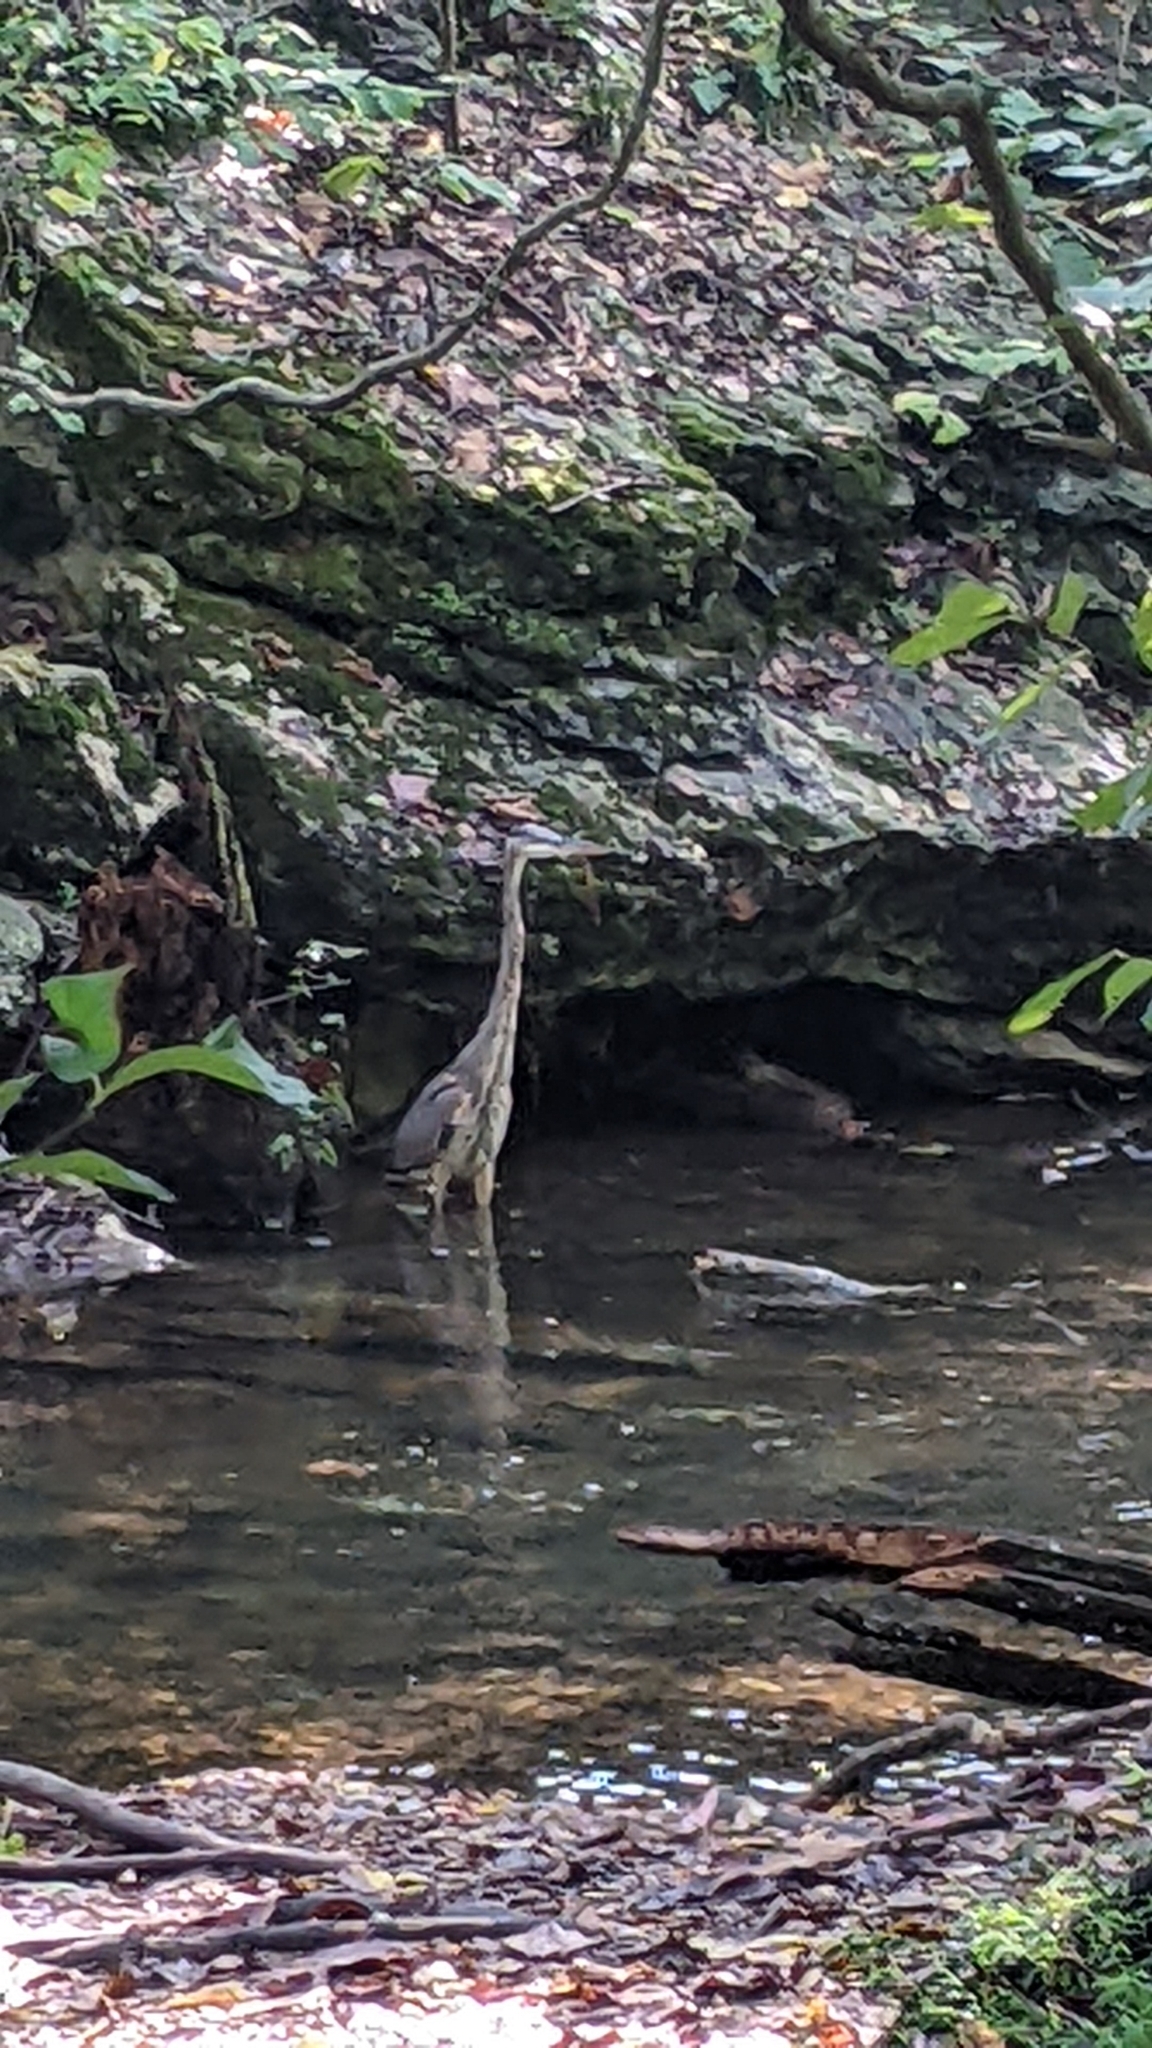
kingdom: Animalia
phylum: Chordata
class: Aves
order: Pelecaniformes
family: Ardeidae
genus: Ardea
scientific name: Ardea herodias
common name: Great blue heron
